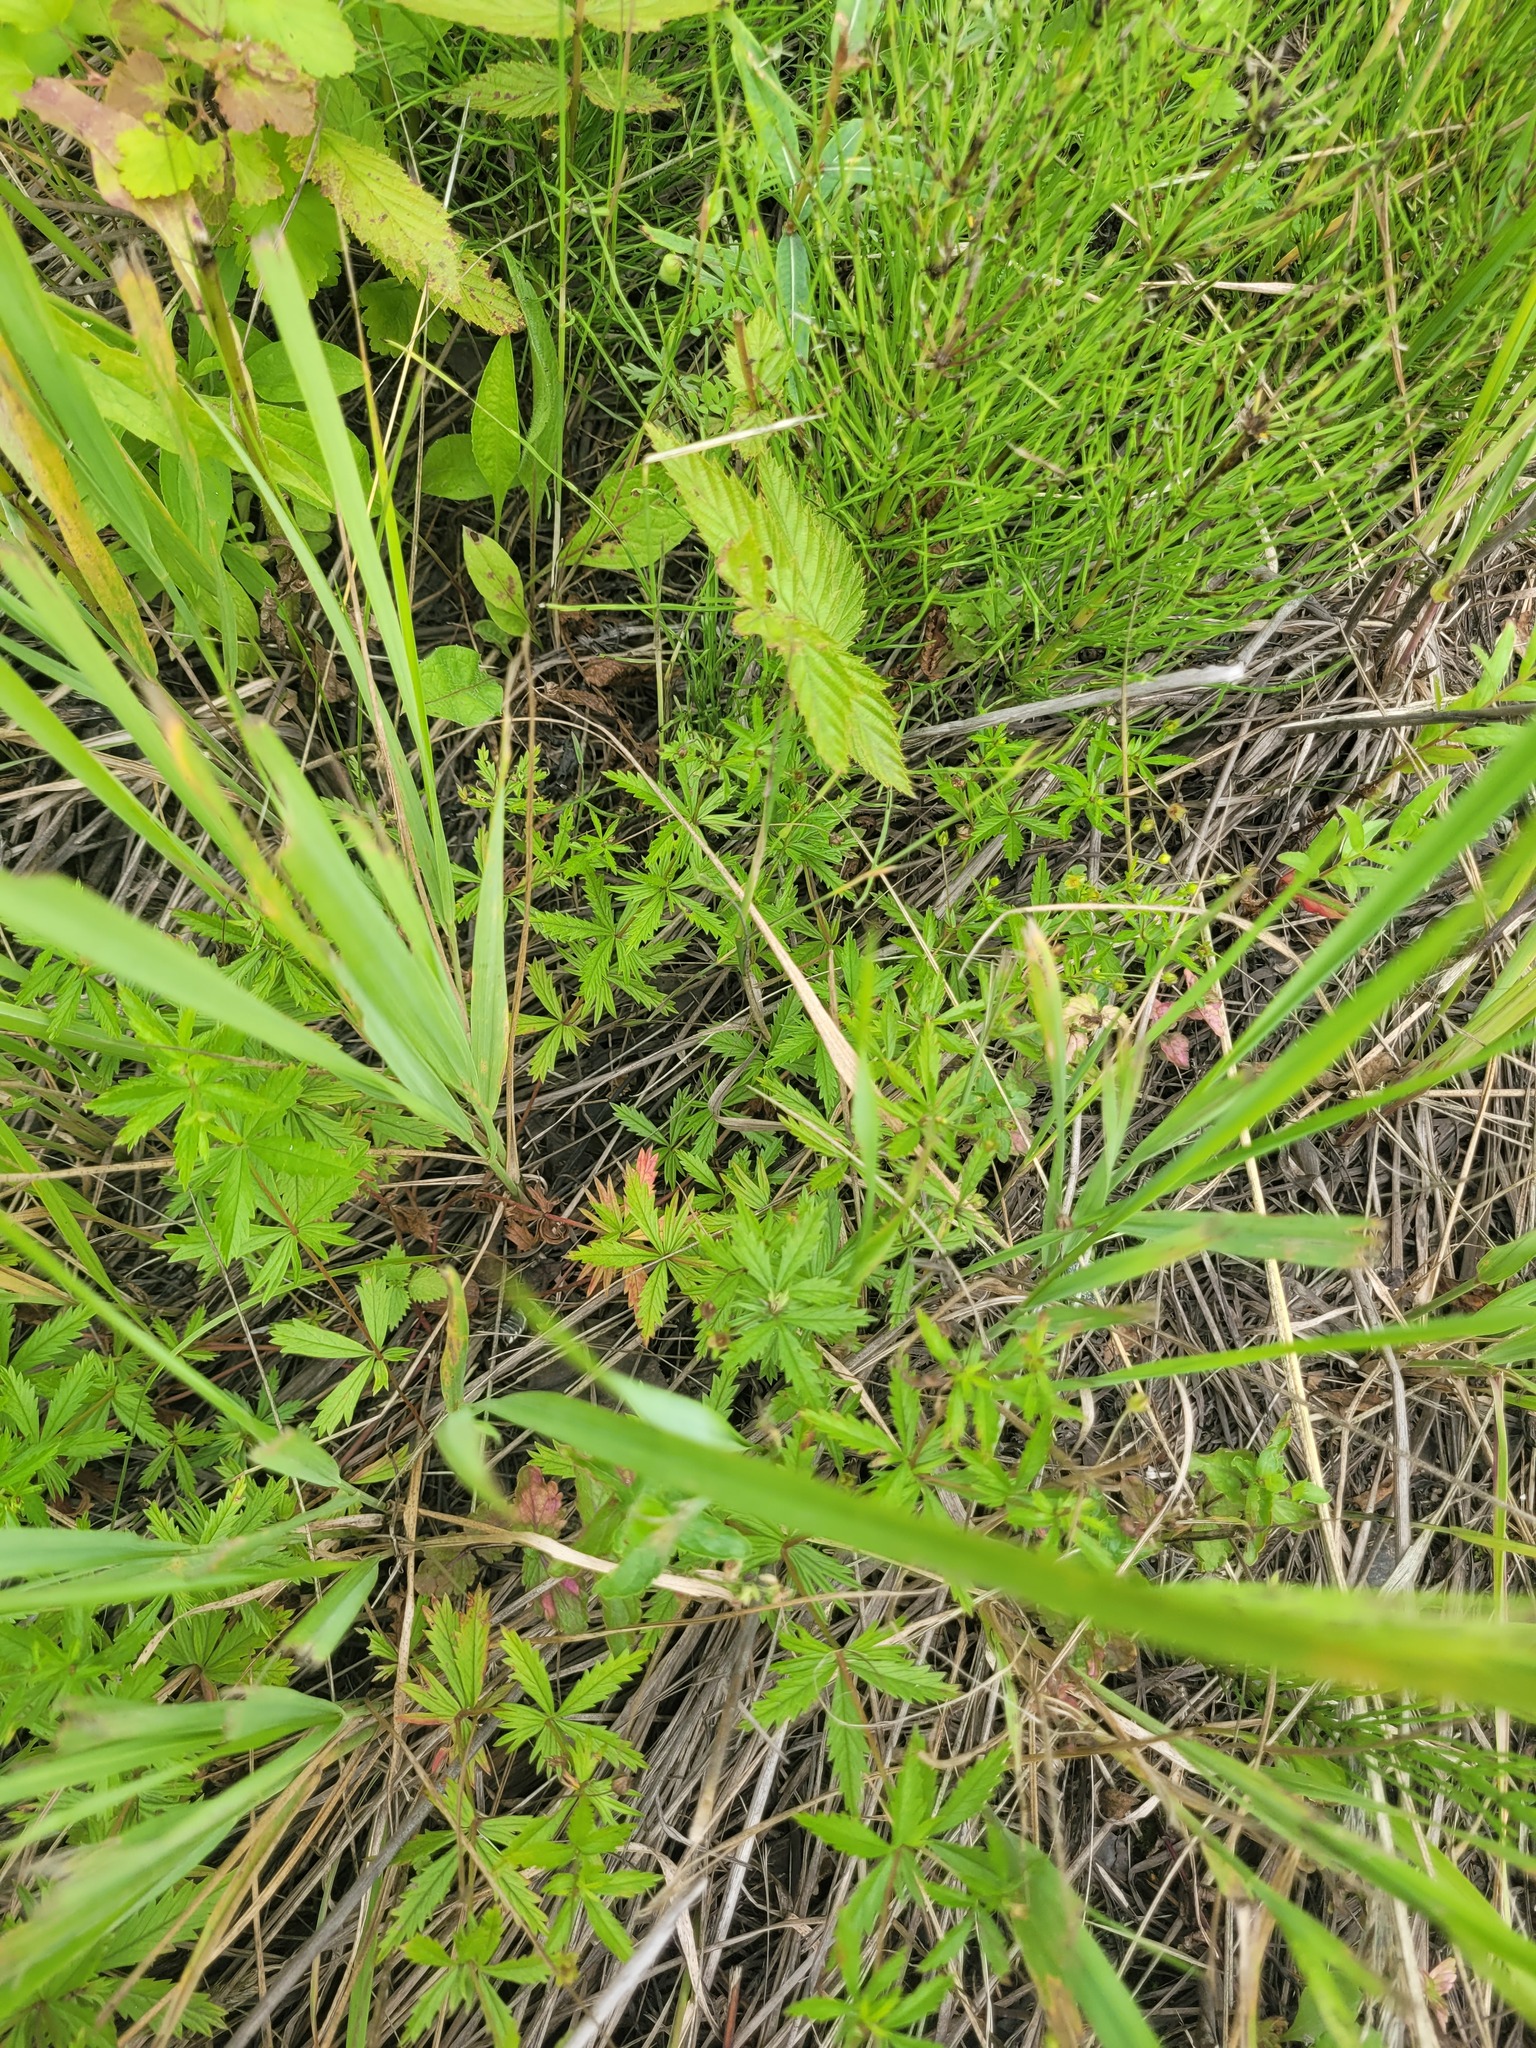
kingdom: Plantae
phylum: Tracheophyta
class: Magnoliopsida
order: Rosales
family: Rosaceae
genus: Potentilla
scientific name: Potentilla erecta
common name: Tormentil
